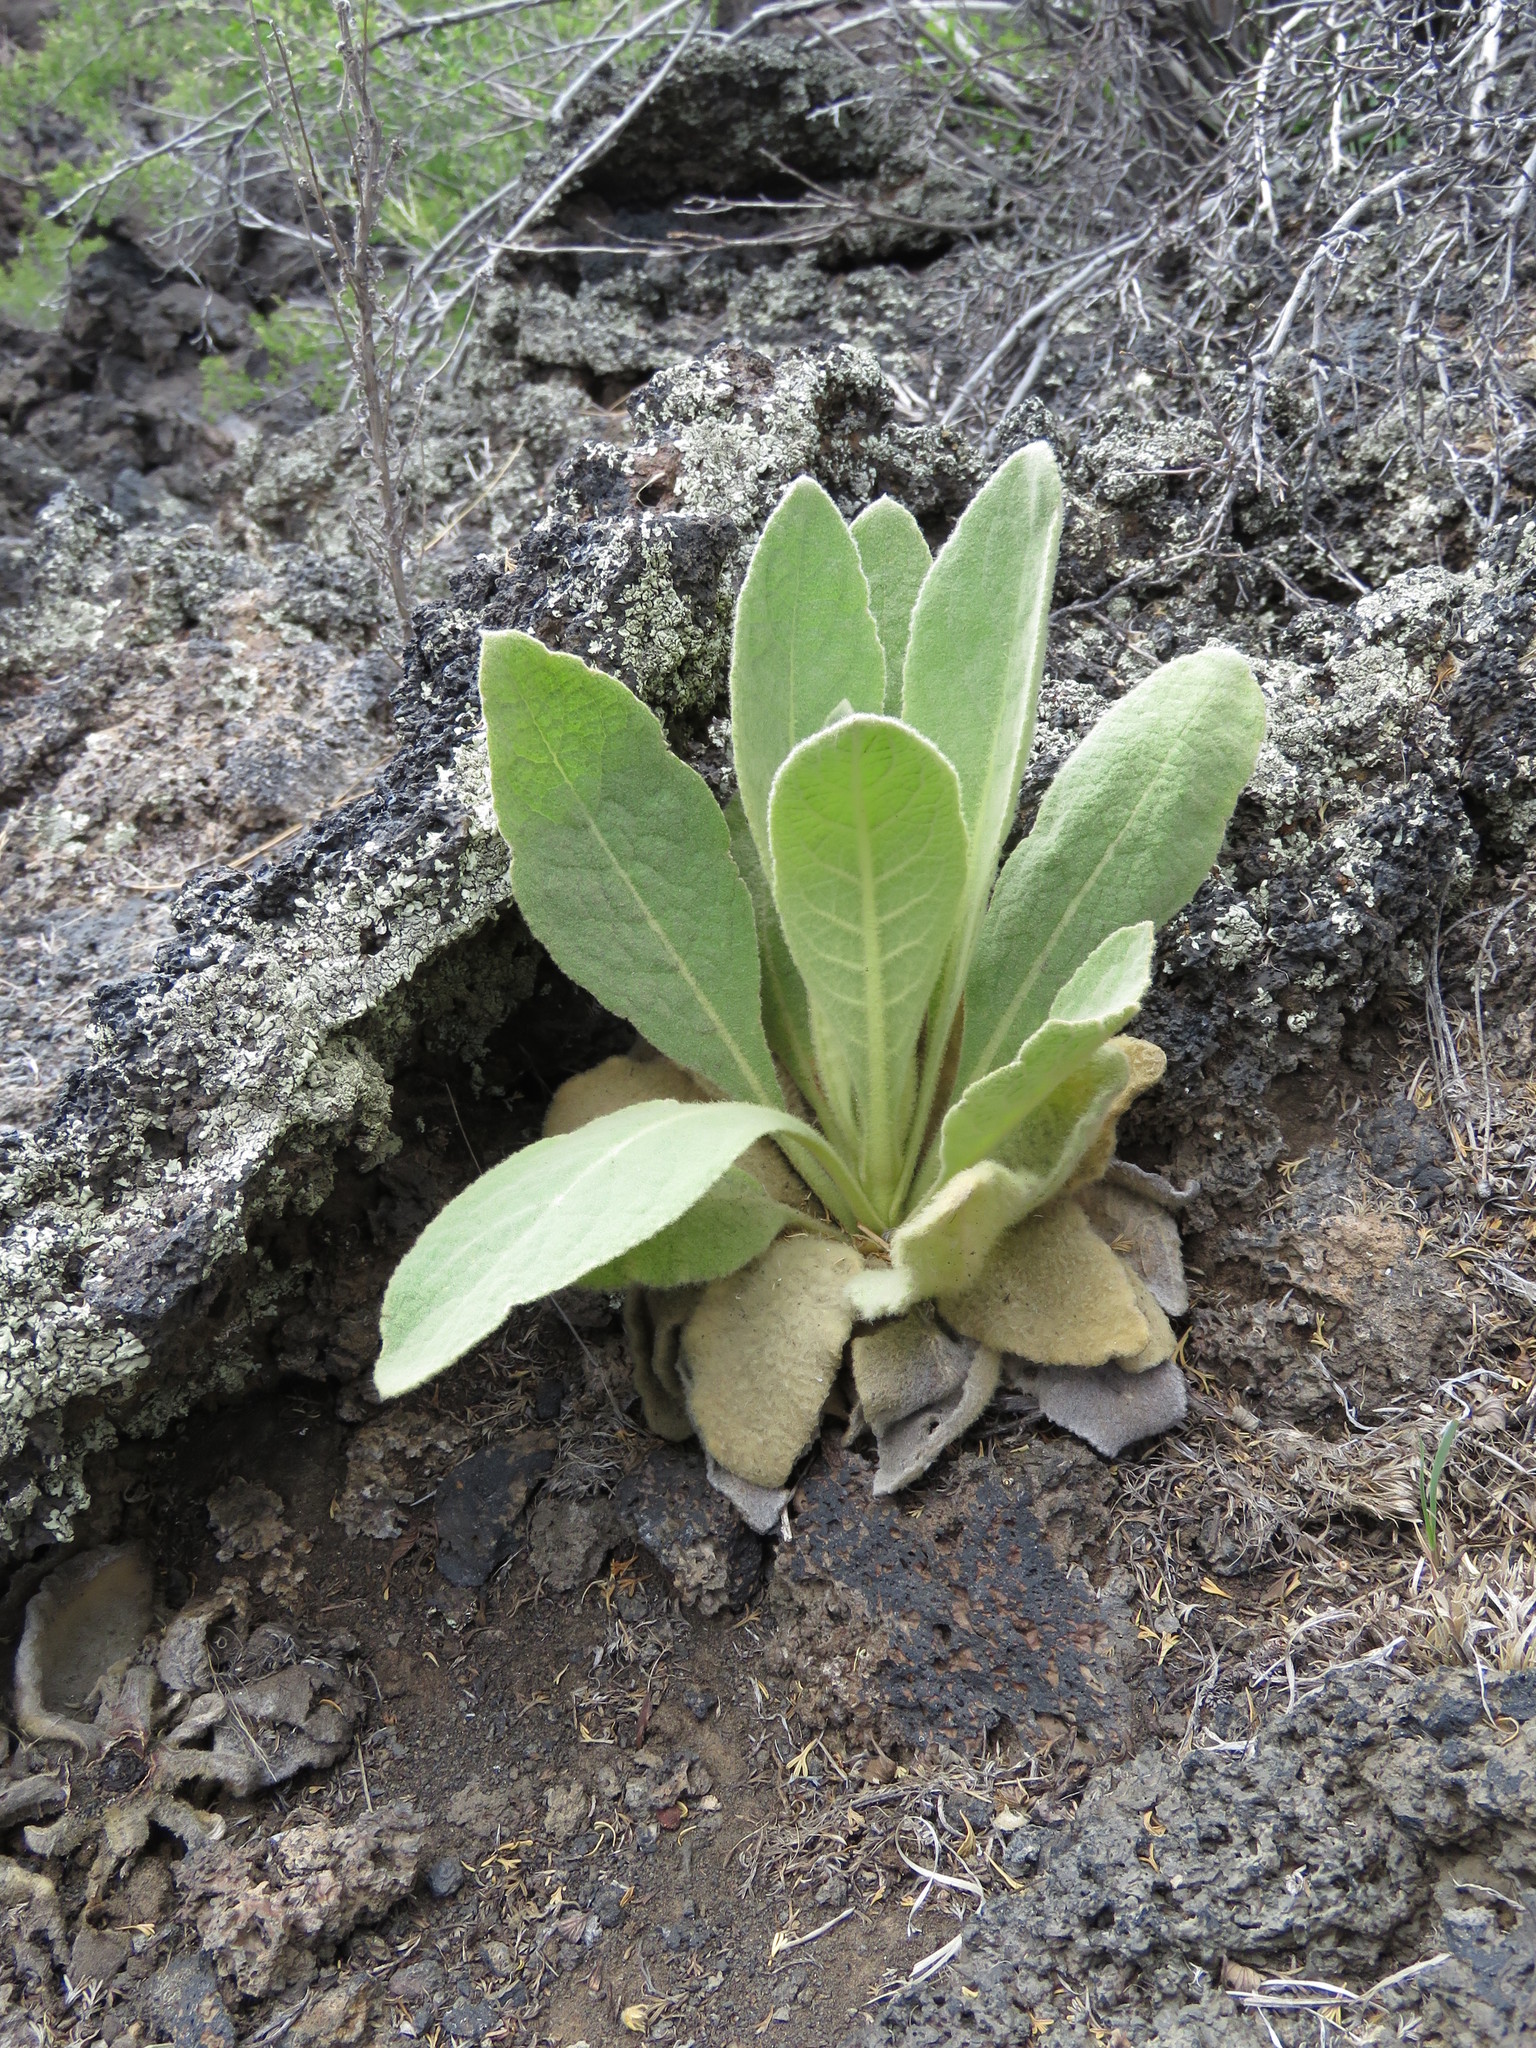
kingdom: Plantae
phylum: Tracheophyta
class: Magnoliopsida
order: Lamiales
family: Scrophulariaceae
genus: Verbascum
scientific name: Verbascum thapsus
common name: Common mullein
